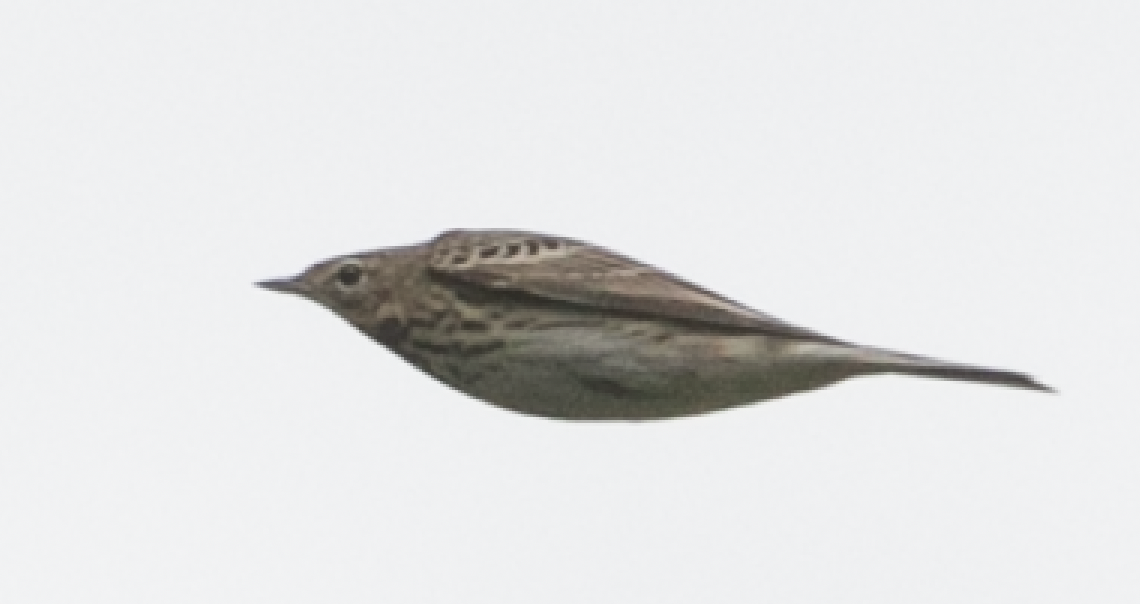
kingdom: Animalia
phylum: Chordata
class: Aves
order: Passeriformes
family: Motacillidae
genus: Anthus
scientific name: Anthus trivialis
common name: Tree pipit
